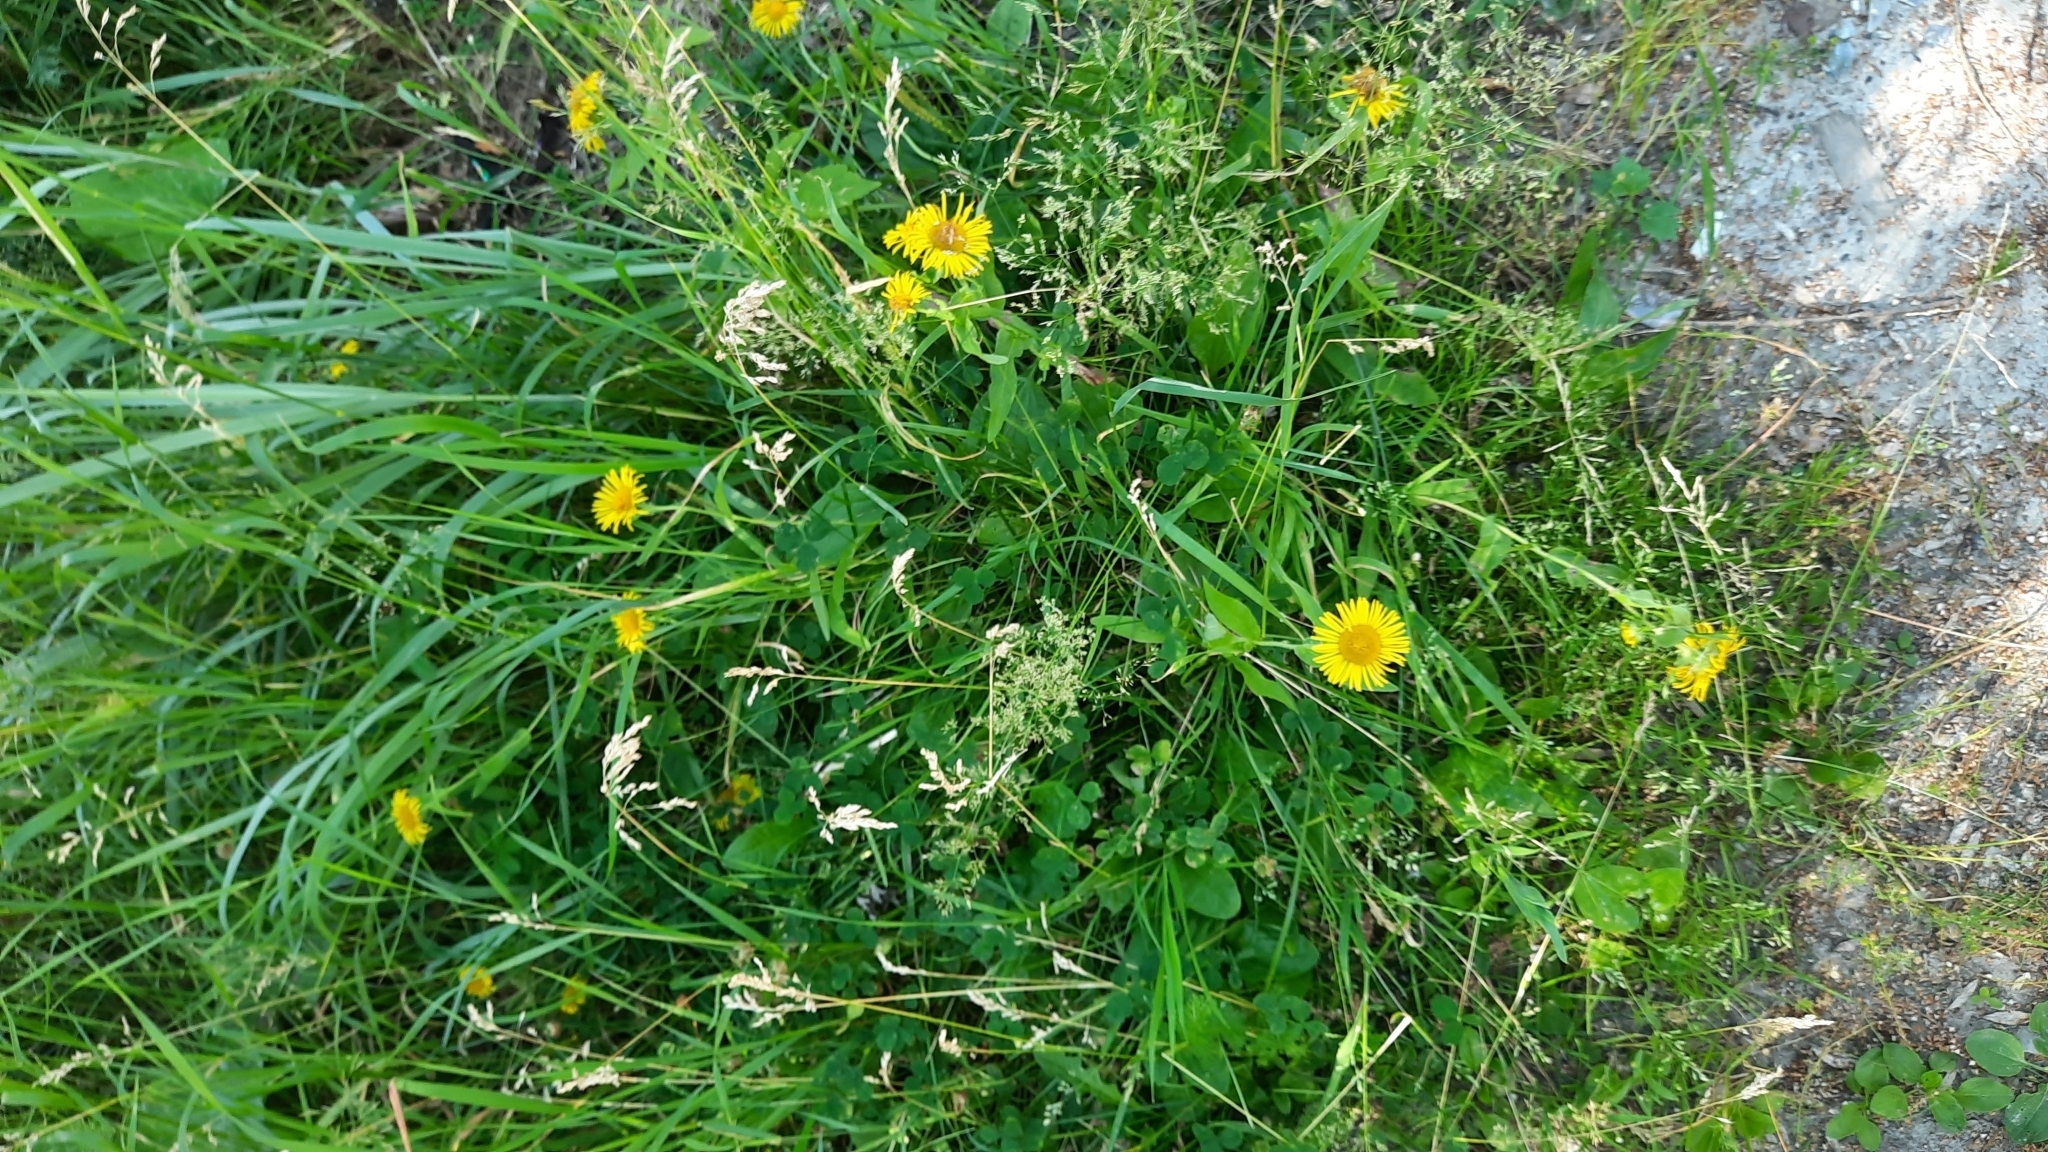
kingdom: Plantae
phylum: Tracheophyta
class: Magnoliopsida
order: Asterales
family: Asteraceae
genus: Pentanema
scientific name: Pentanema britannicum
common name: British elecampane
